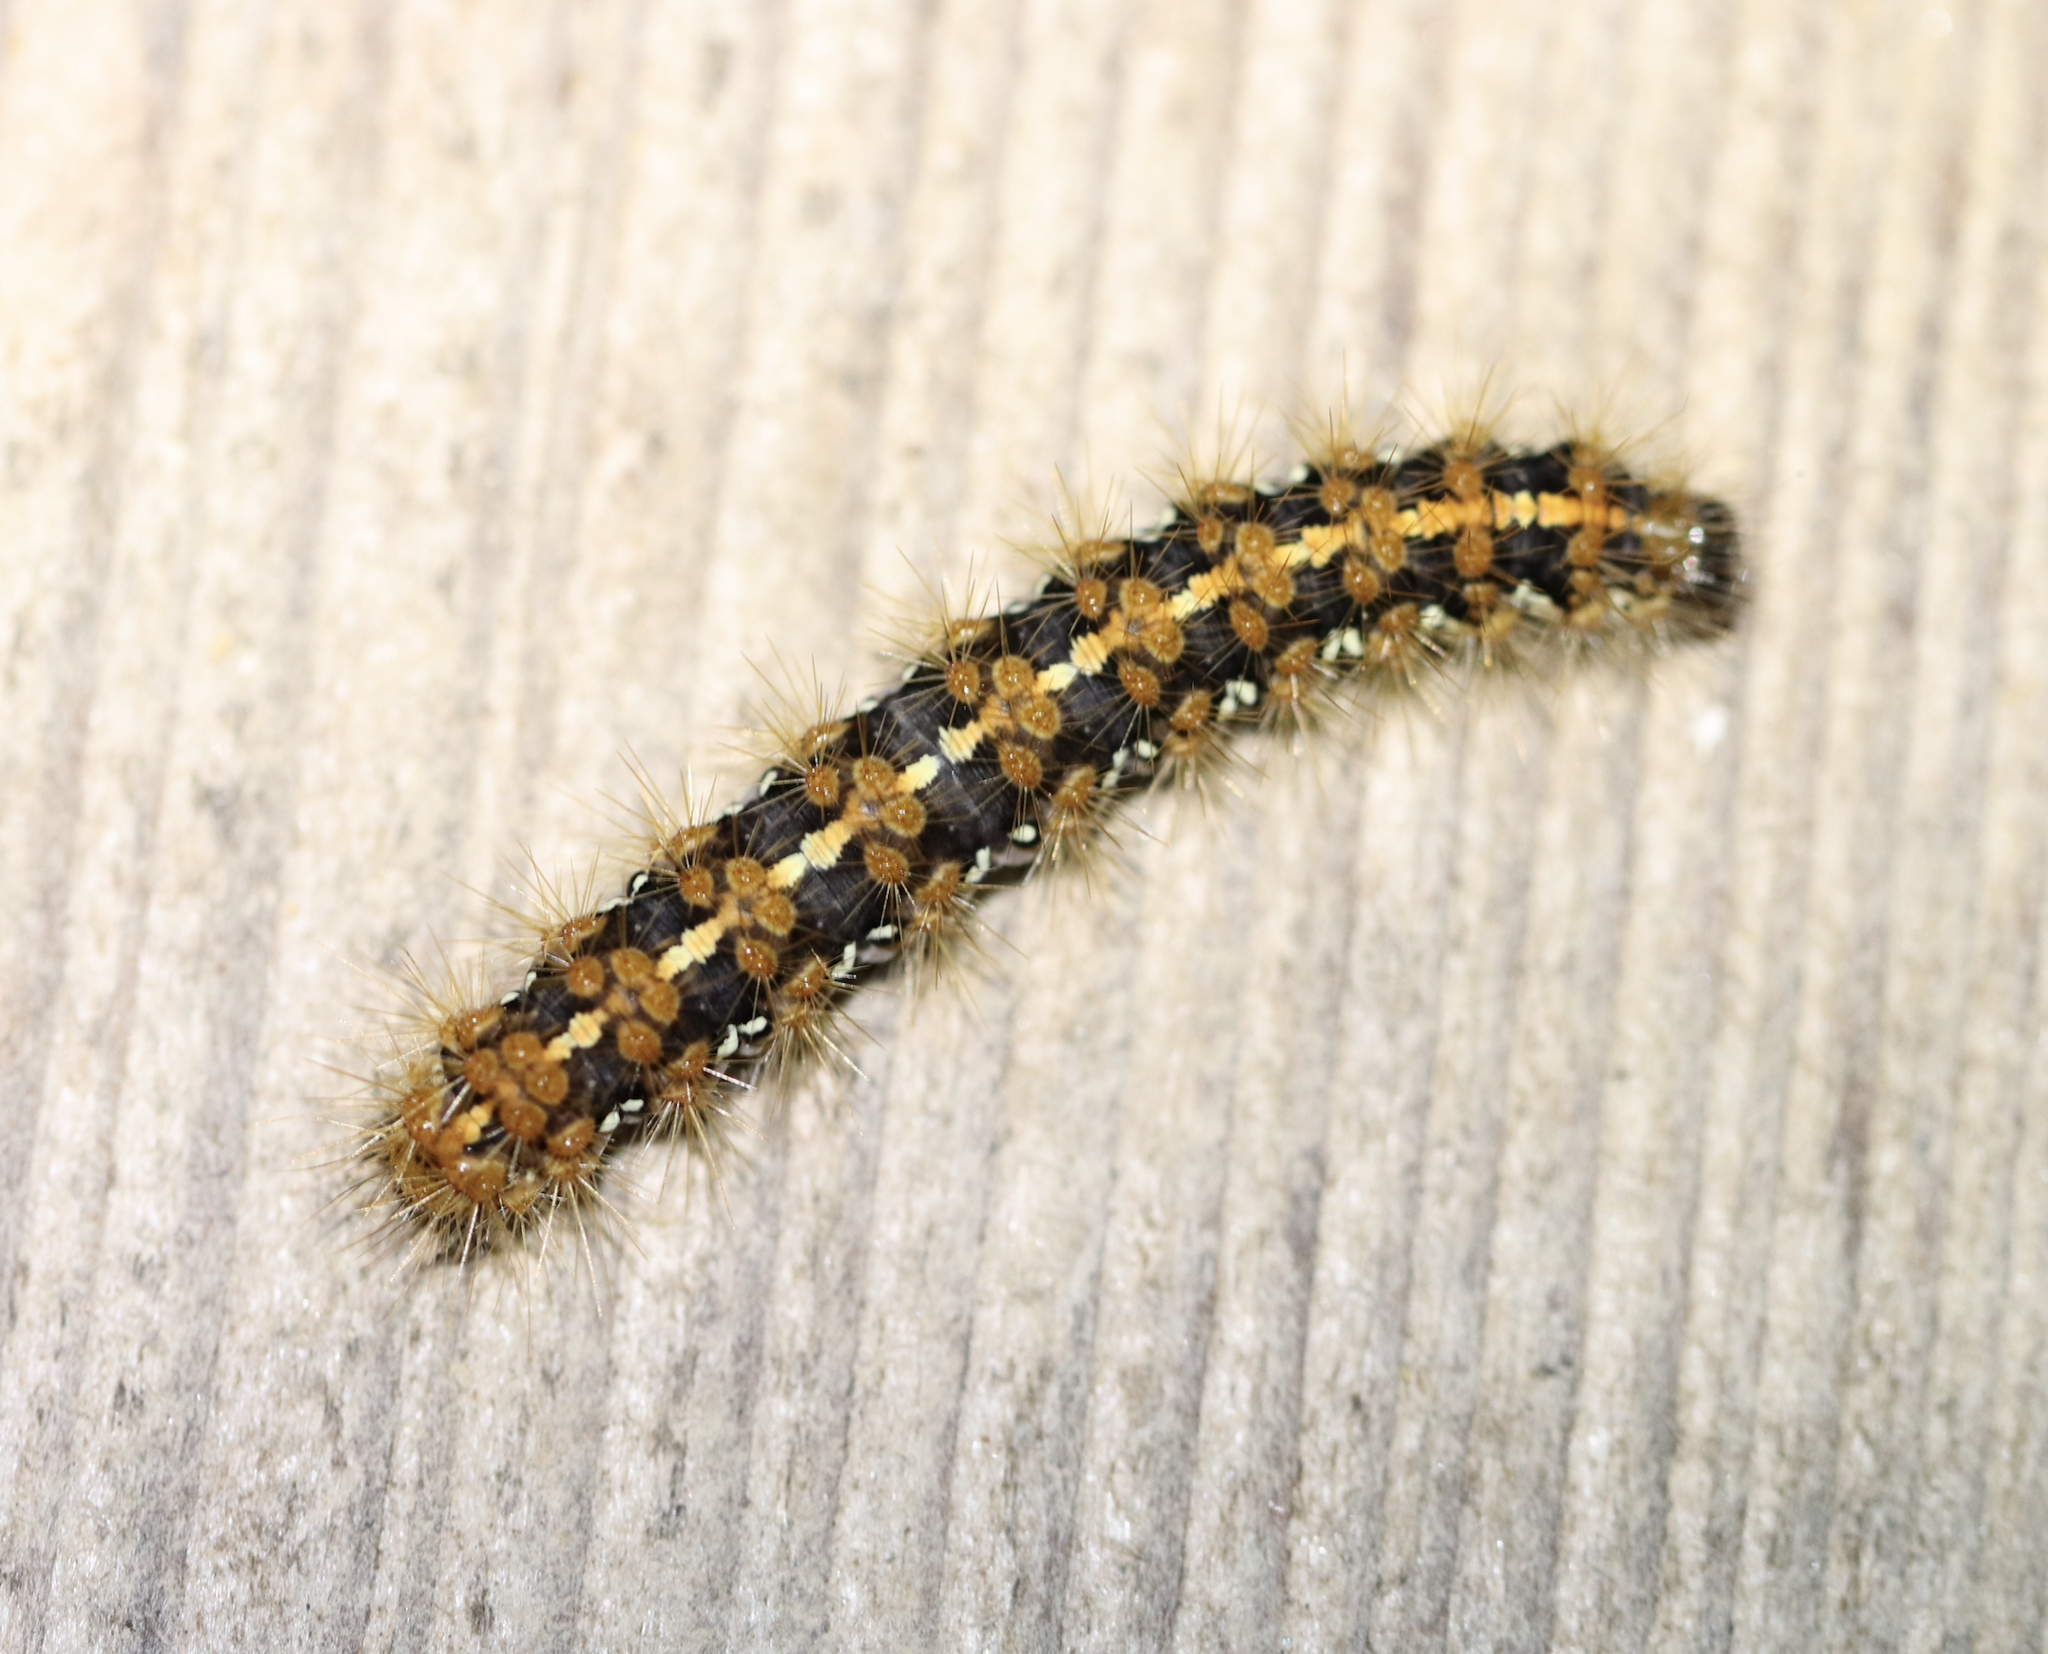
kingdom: Animalia
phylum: Arthropoda
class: Insecta
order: Lepidoptera
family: Erebidae
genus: Euplagia
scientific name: Euplagia quadripunctaria
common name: Jersey tiger
